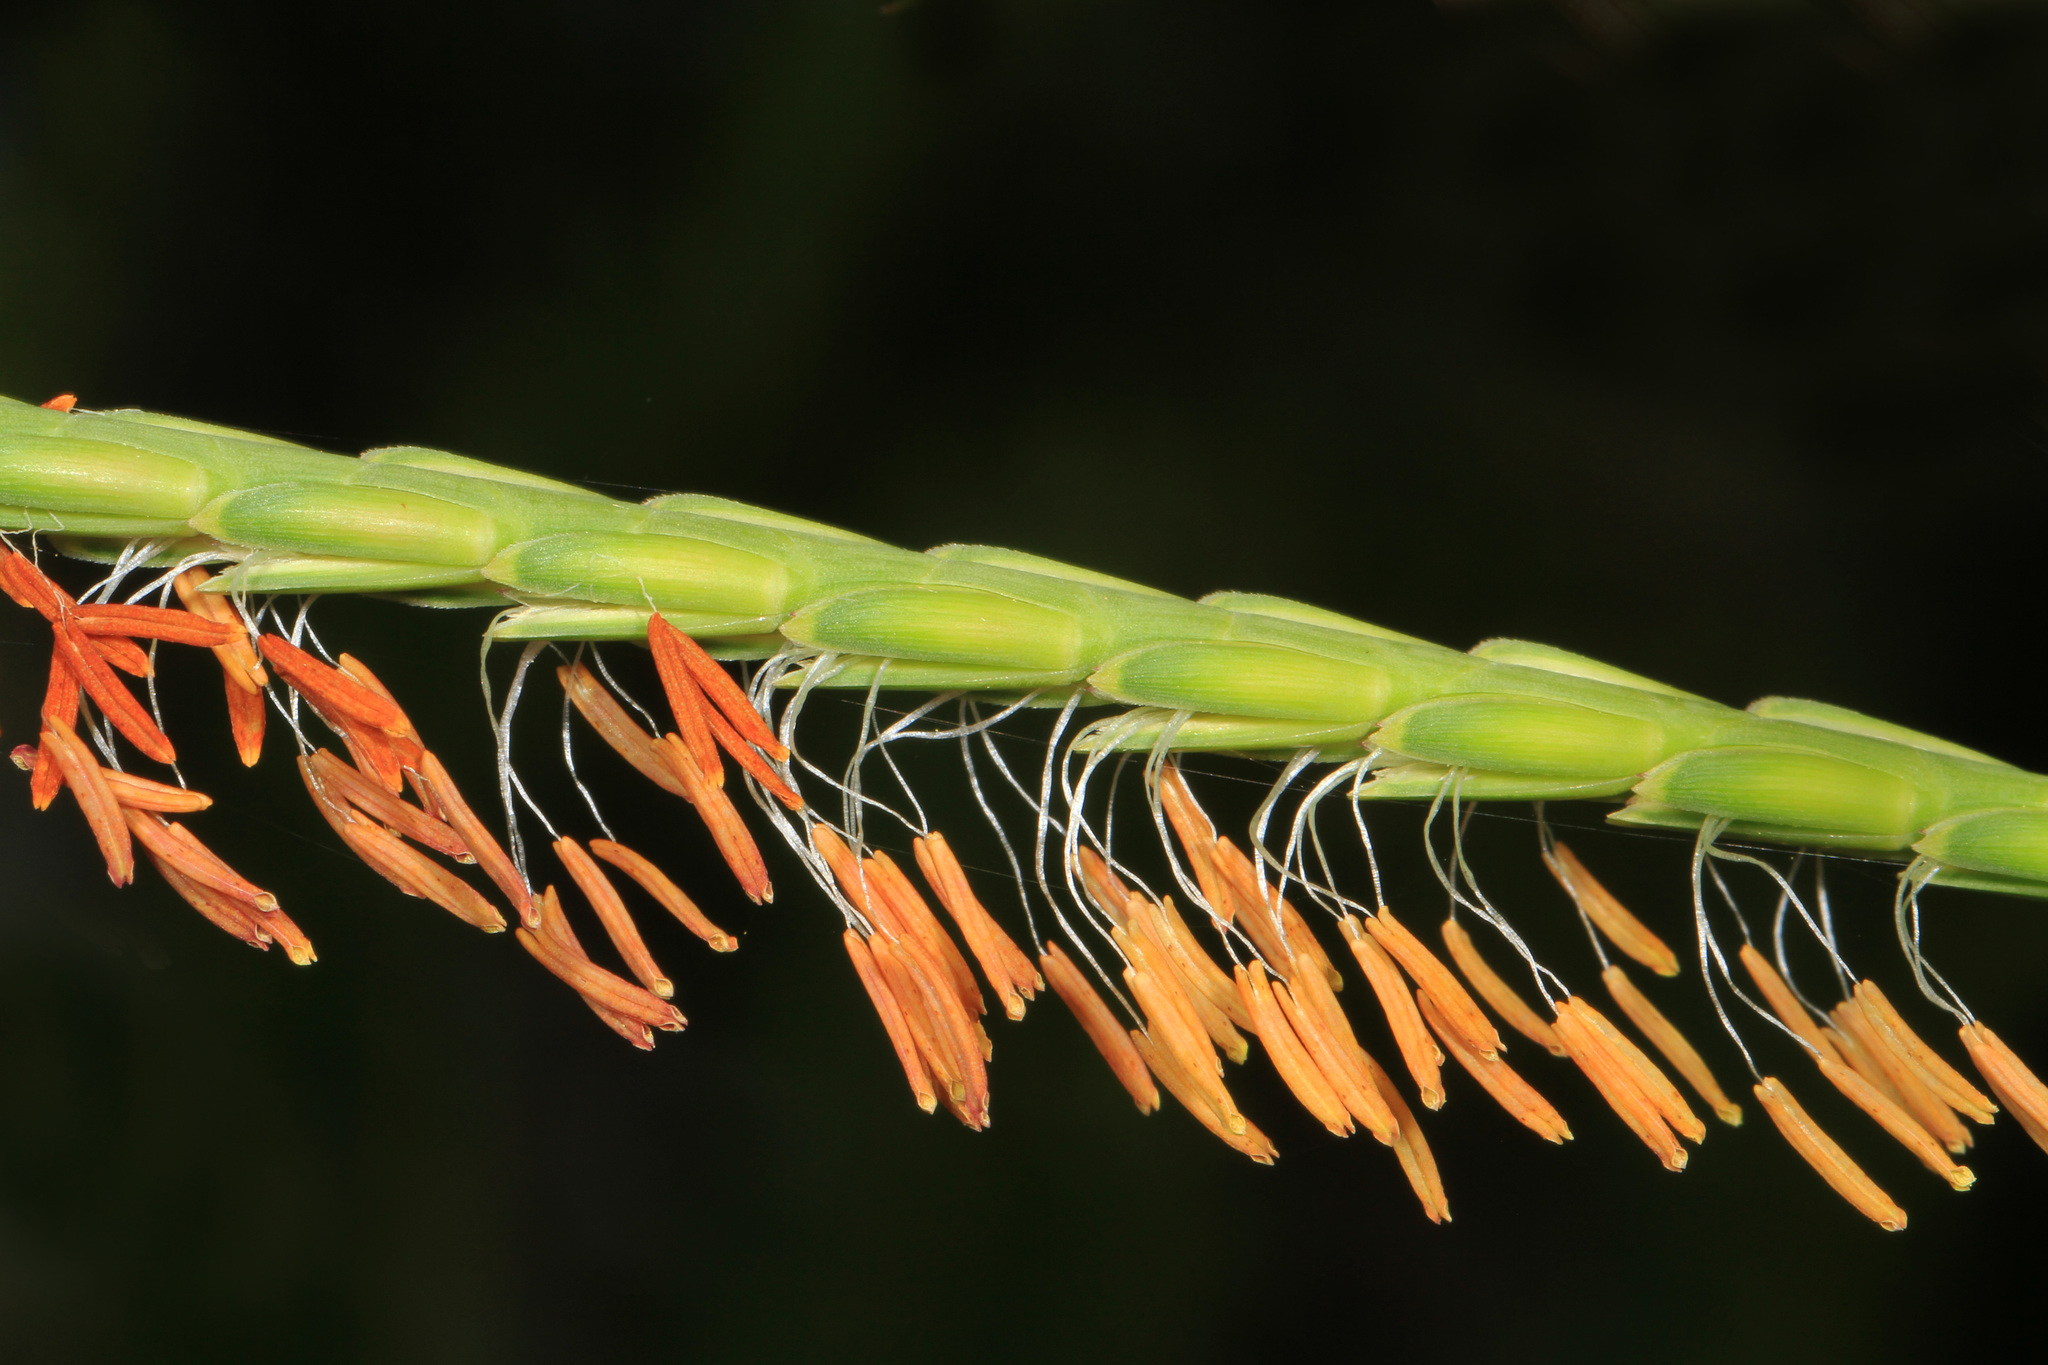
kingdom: Plantae
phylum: Tracheophyta
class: Liliopsida
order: Poales
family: Poaceae
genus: Tripsacum
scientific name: Tripsacum dactyloides
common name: Buffalo-grass
